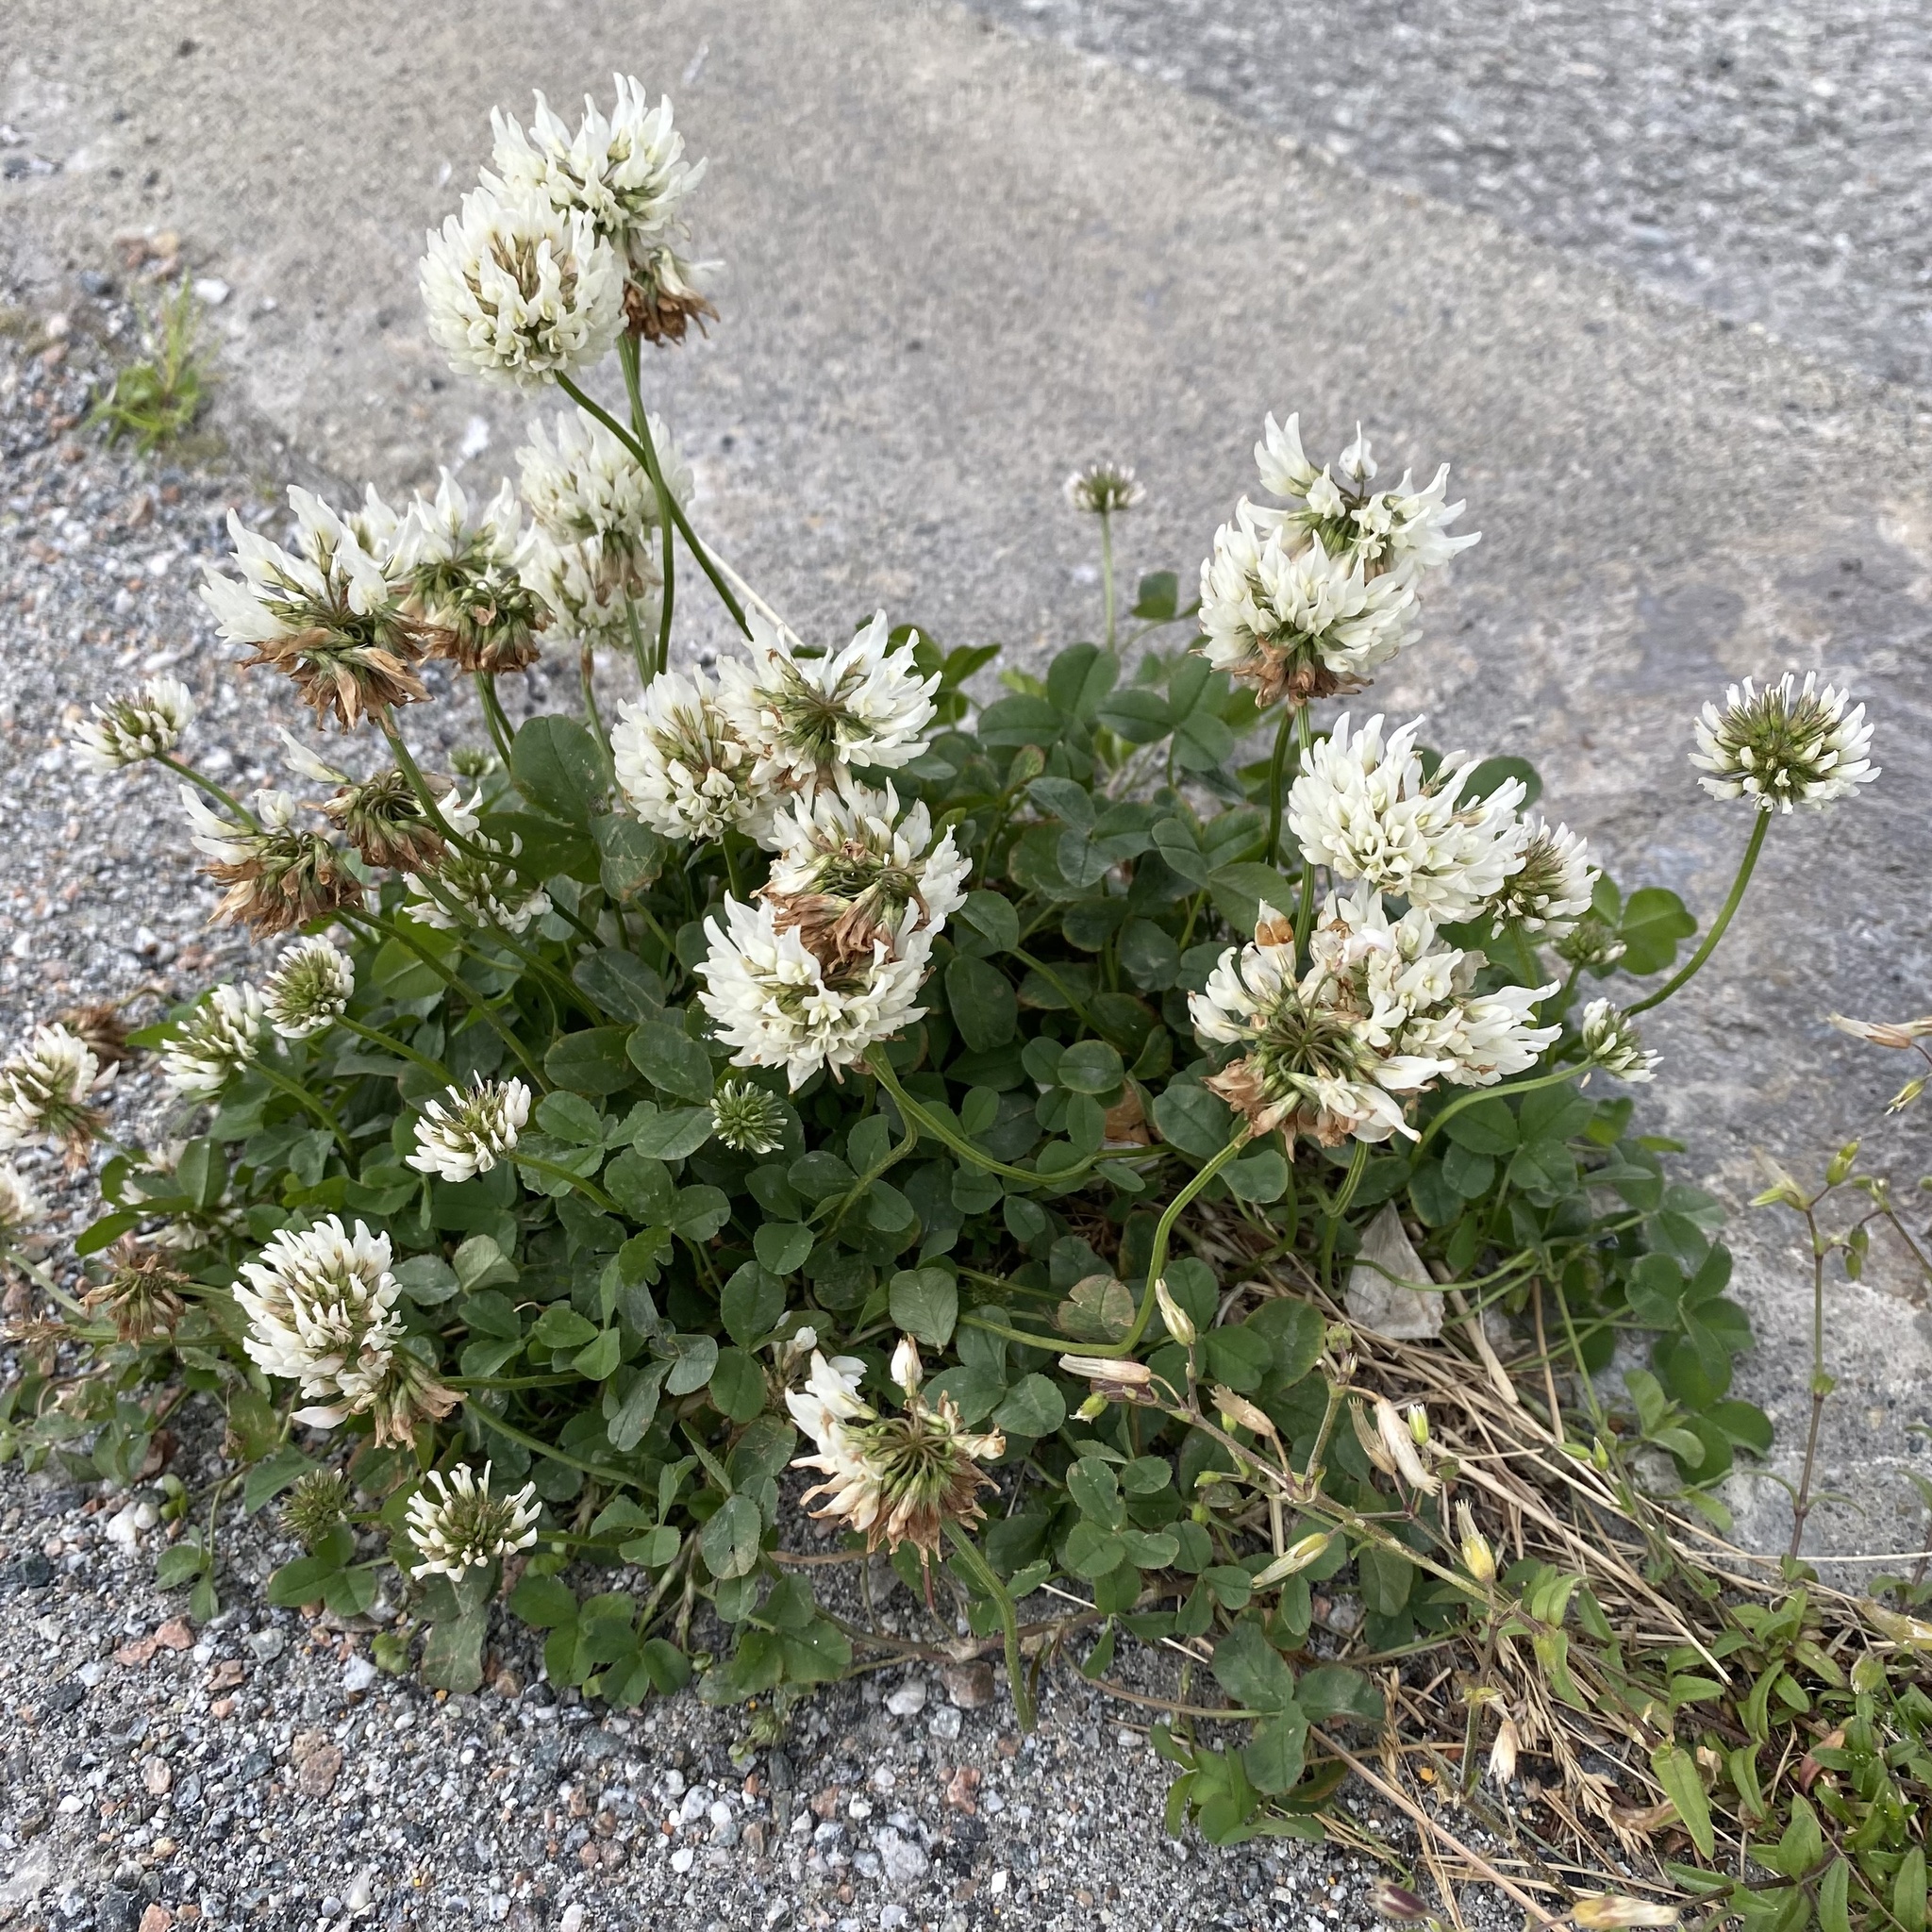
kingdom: Plantae
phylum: Tracheophyta
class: Magnoliopsida
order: Fabales
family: Fabaceae
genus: Trifolium
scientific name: Trifolium repens
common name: White clover
